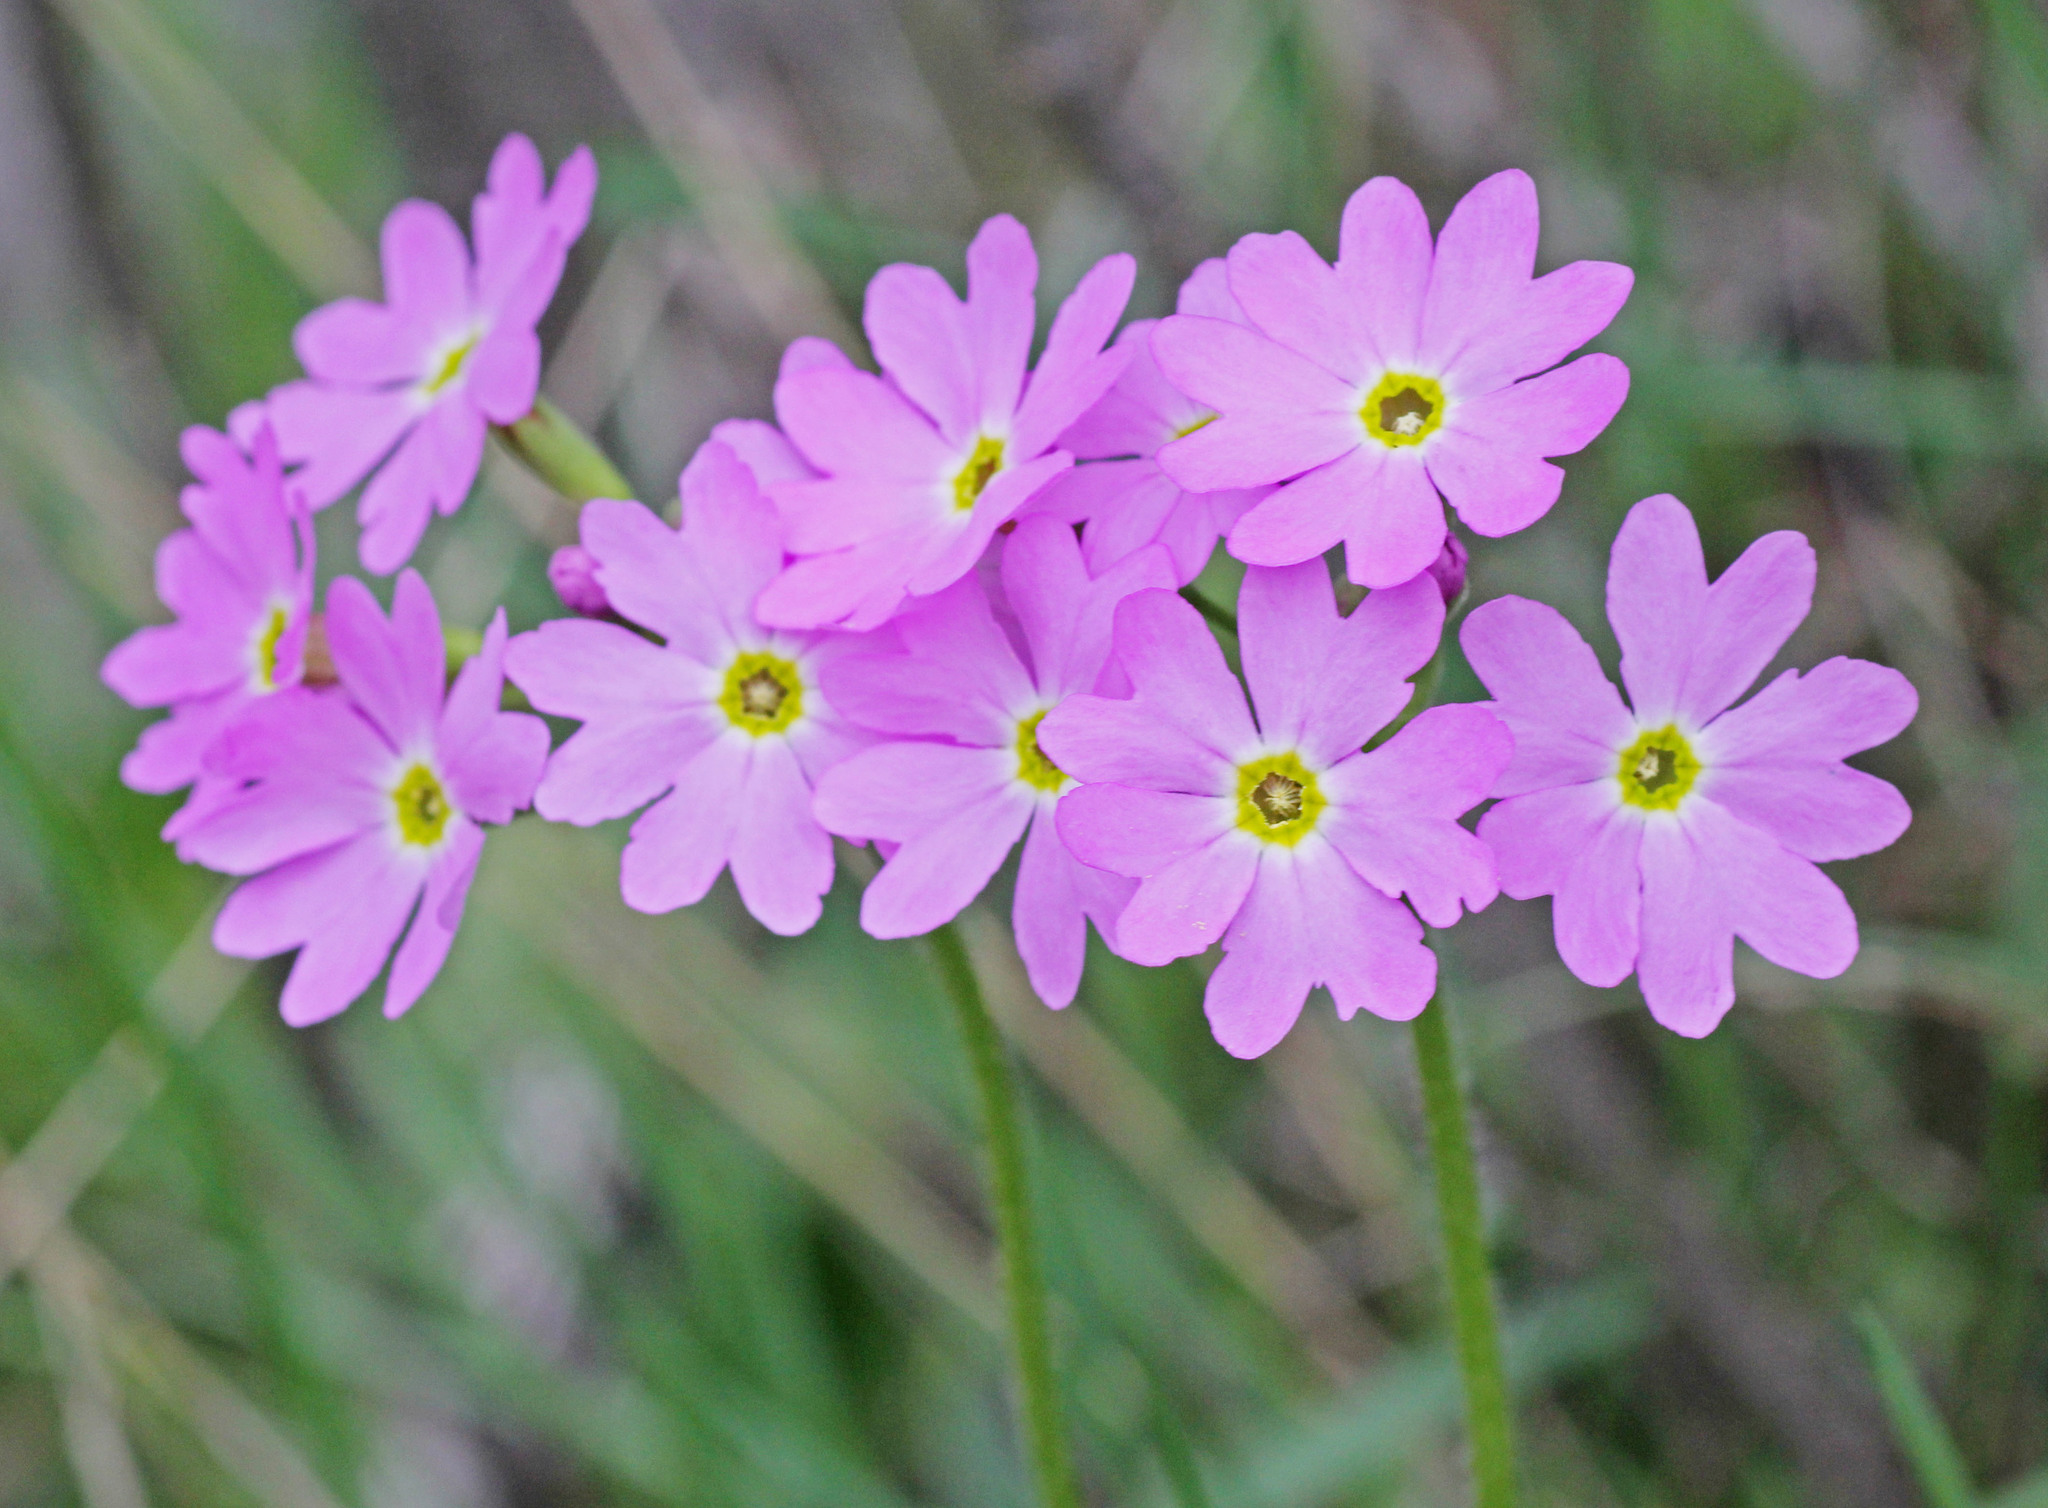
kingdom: Plantae
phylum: Tracheophyta
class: Magnoliopsida
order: Ericales
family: Primulaceae
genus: Primula
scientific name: Primula cortusoides
